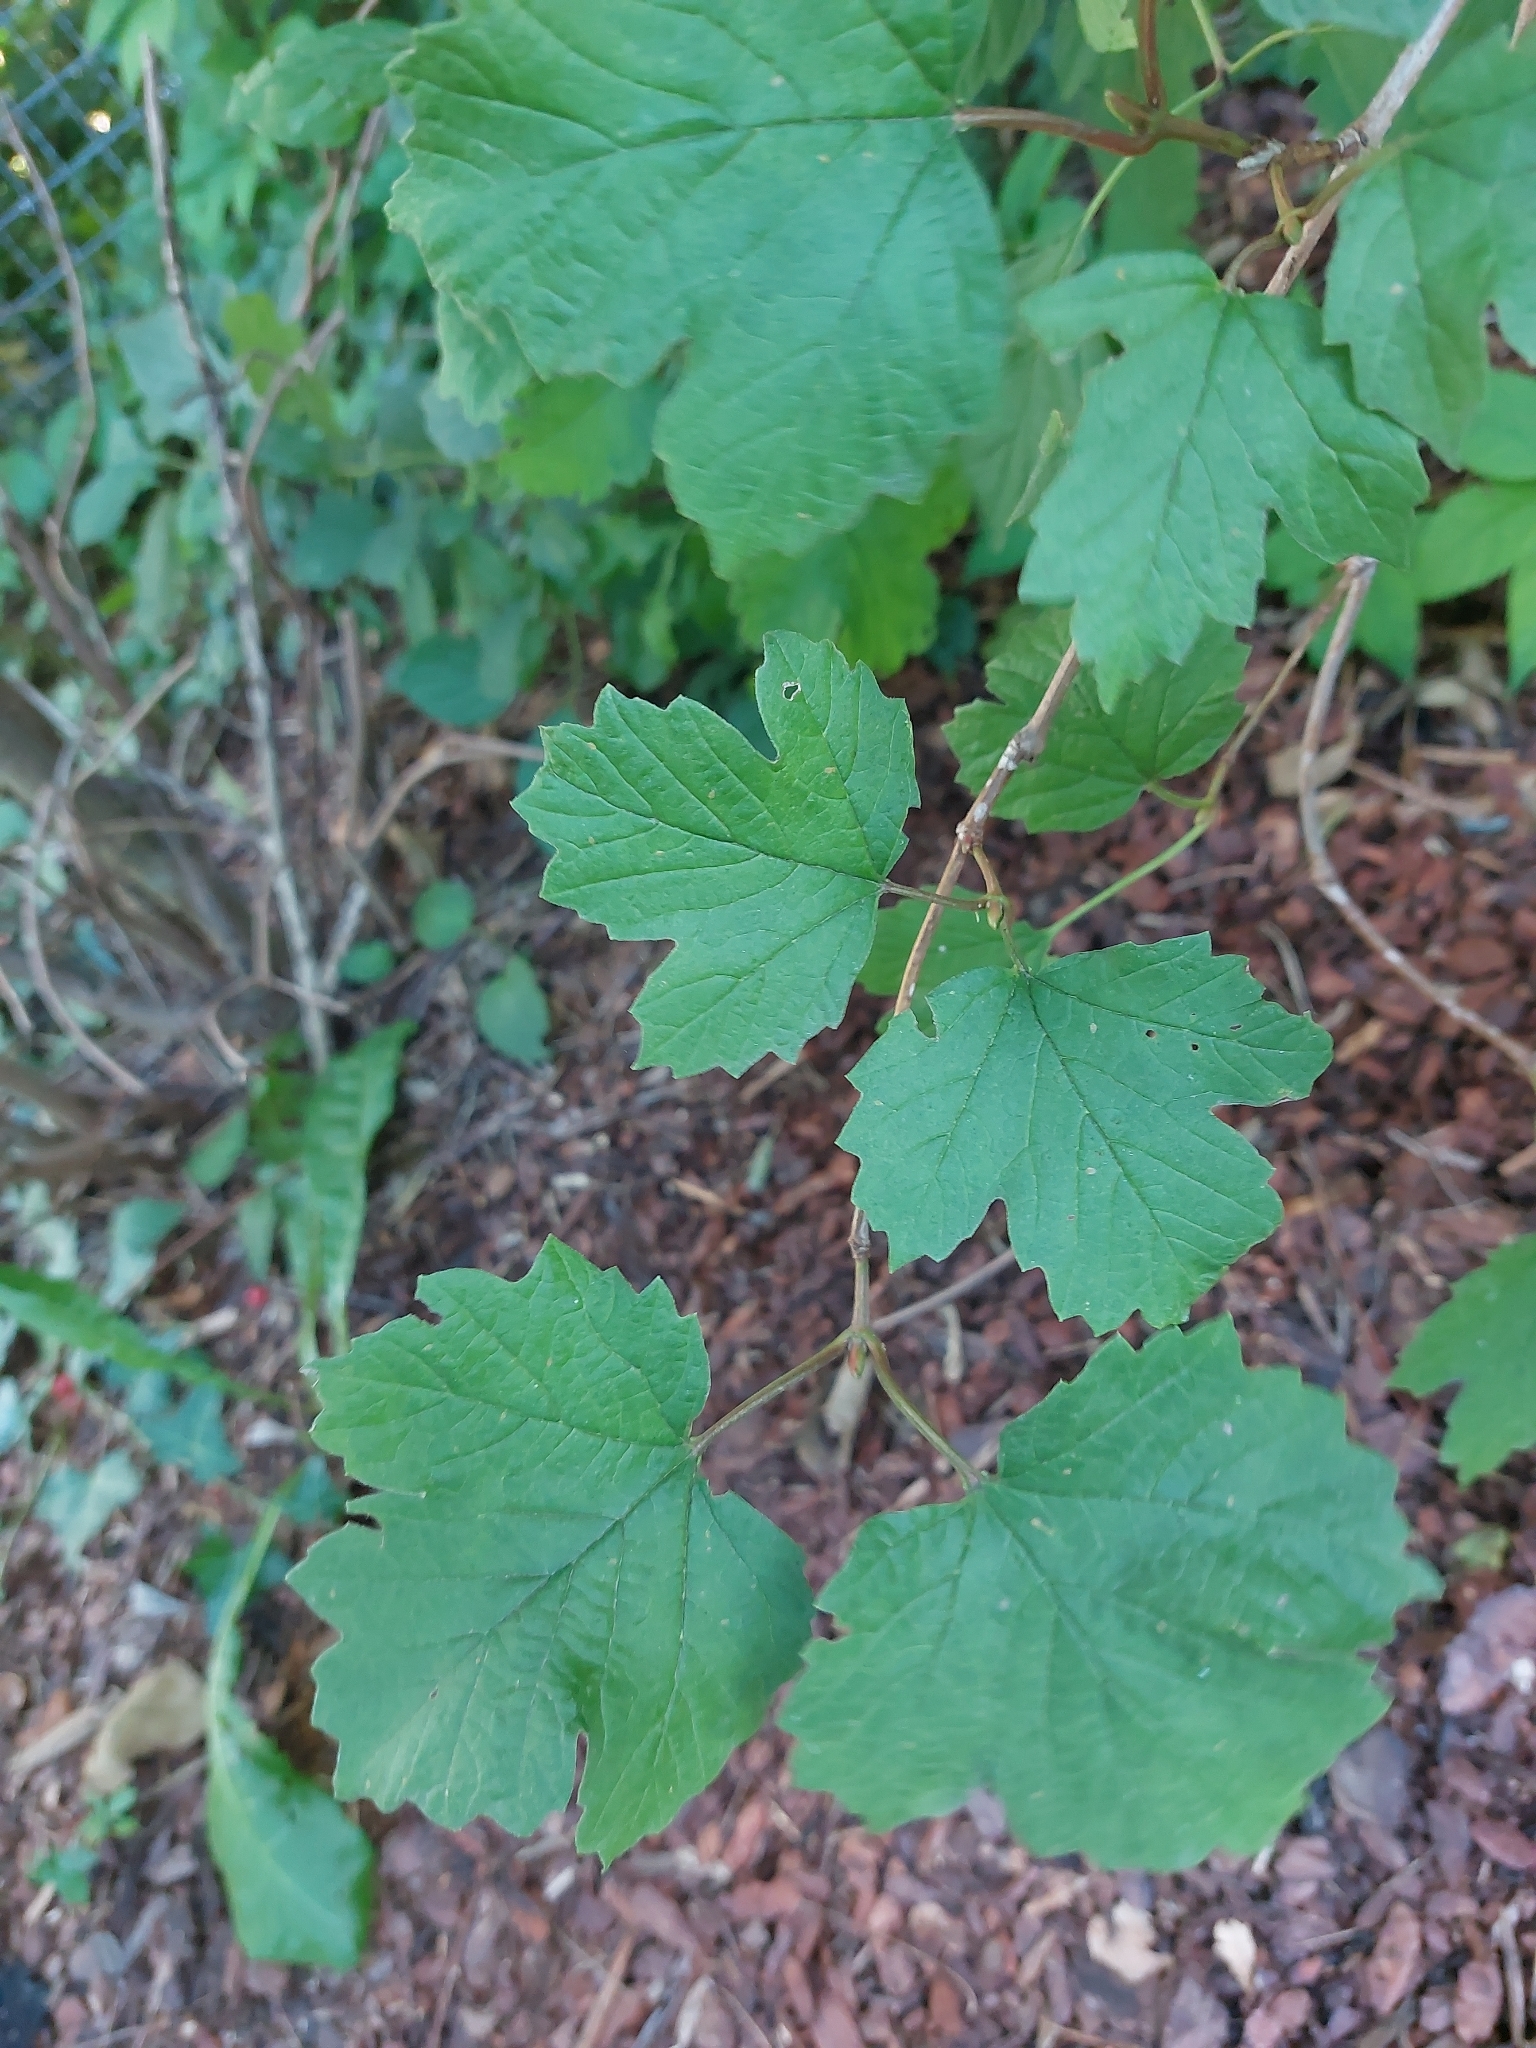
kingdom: Plantae
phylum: Tracheophyta
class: Magnoliopsida
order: Dipsacales
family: Viburnaceae
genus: Viburnum
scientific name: Viburnum opulus
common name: Guelder-rose
